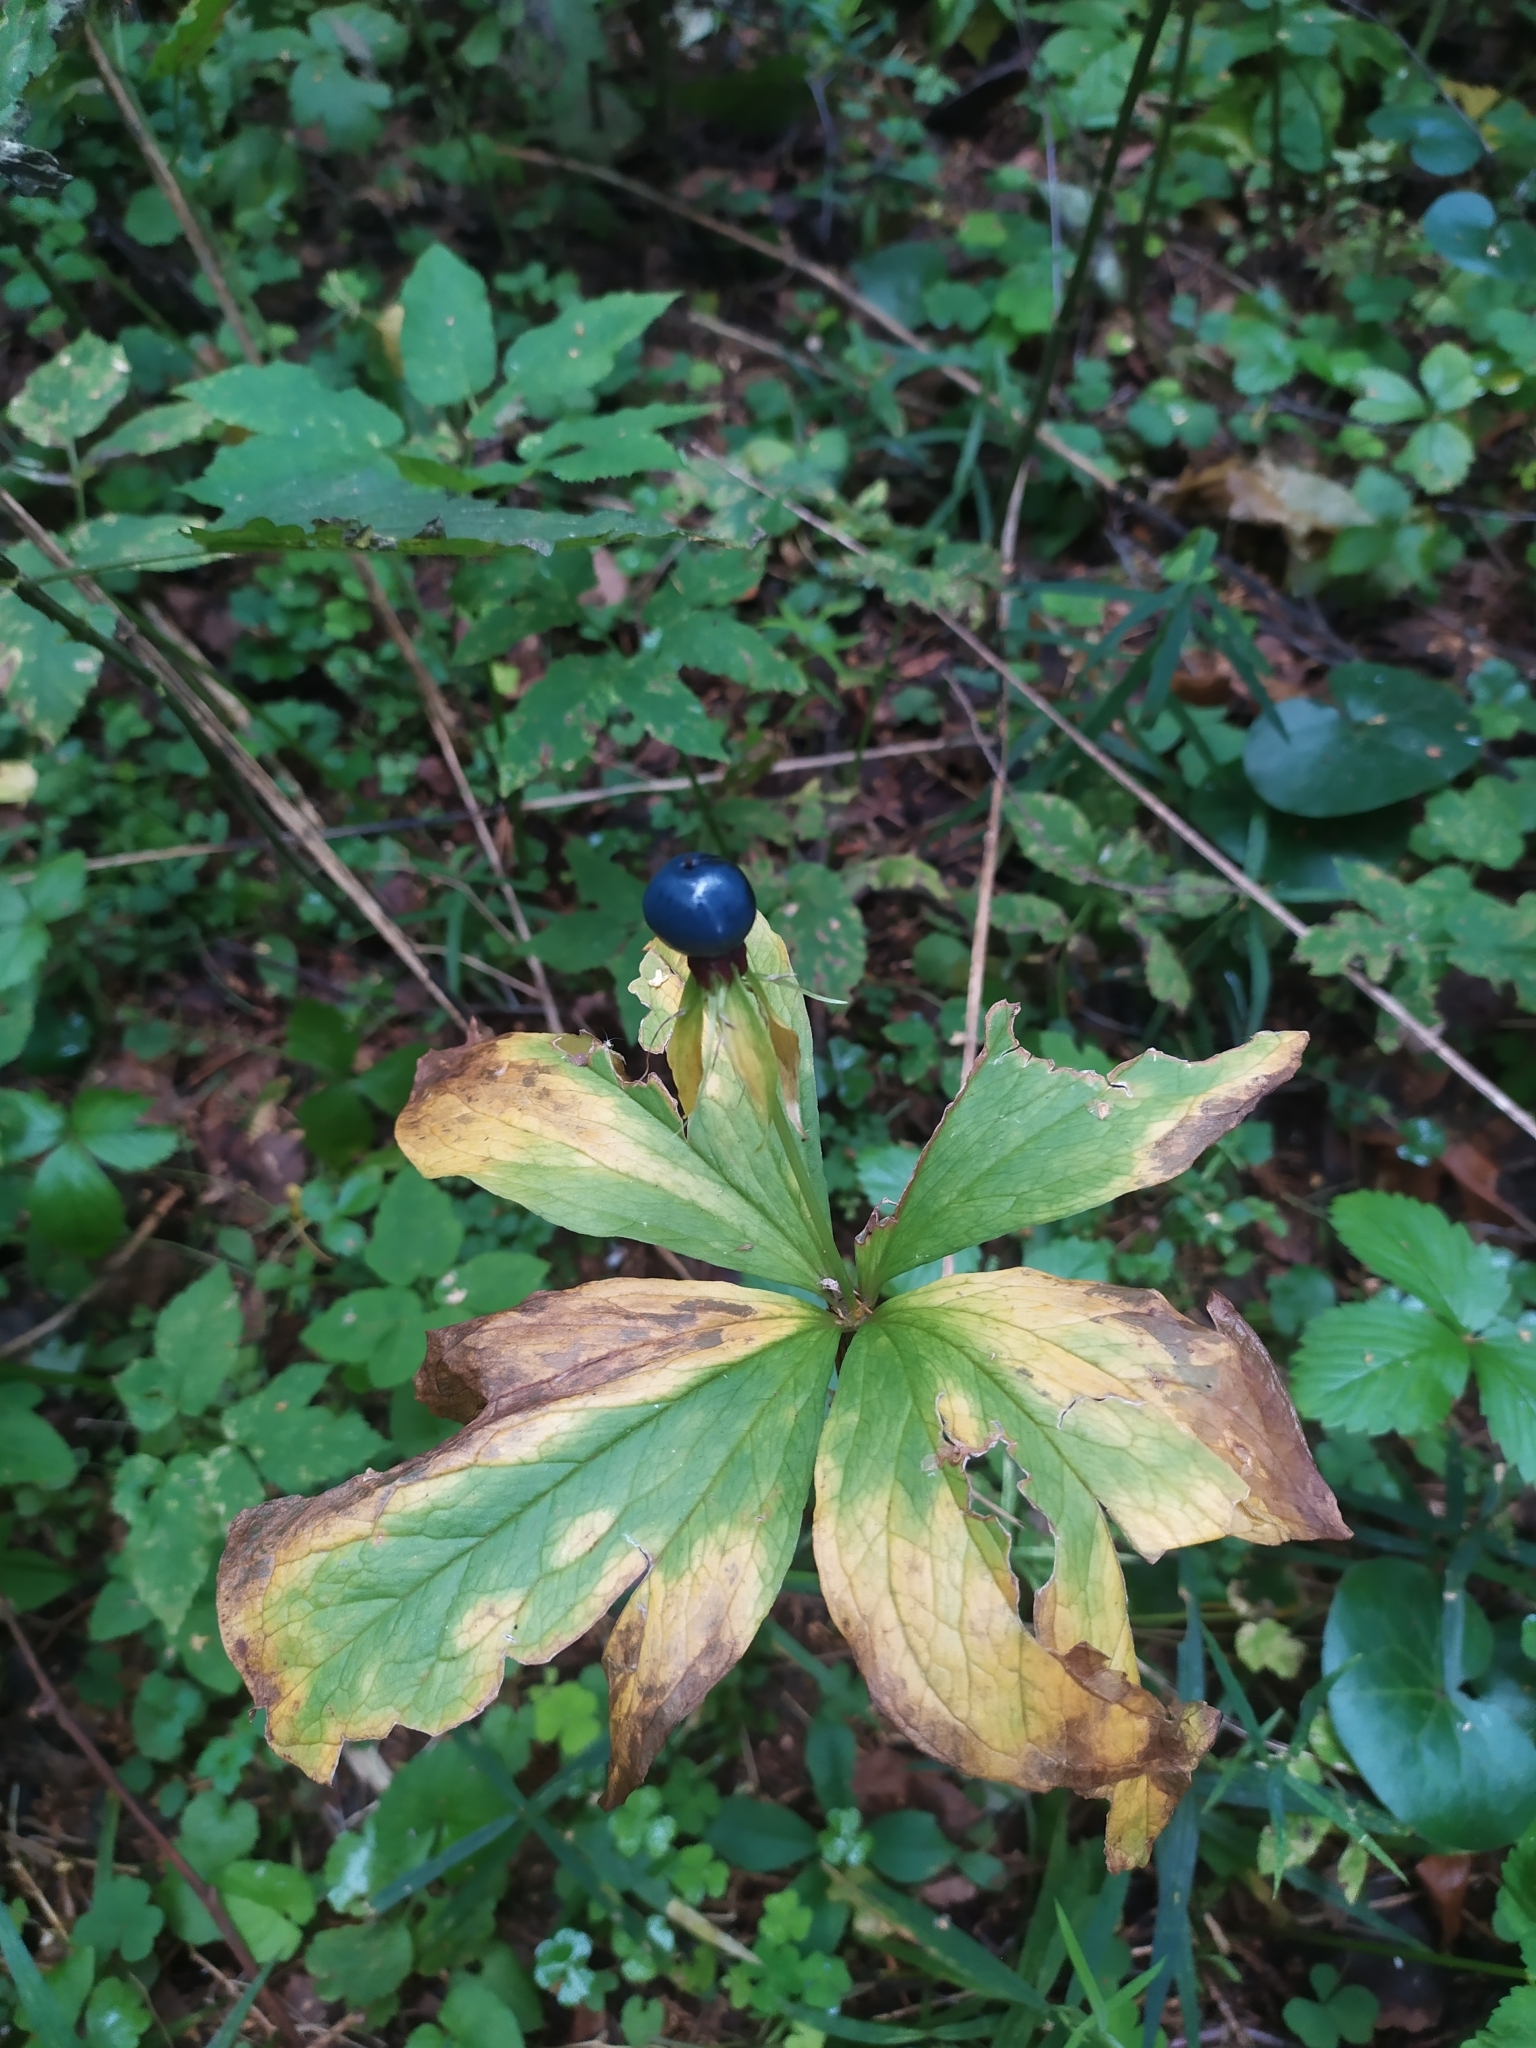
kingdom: Plantae
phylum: Tracheophyta
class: Liliopsida
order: Liliales
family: Melanthiaceae
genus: Paris
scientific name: Paris quadrifolia
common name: Herb-paris
